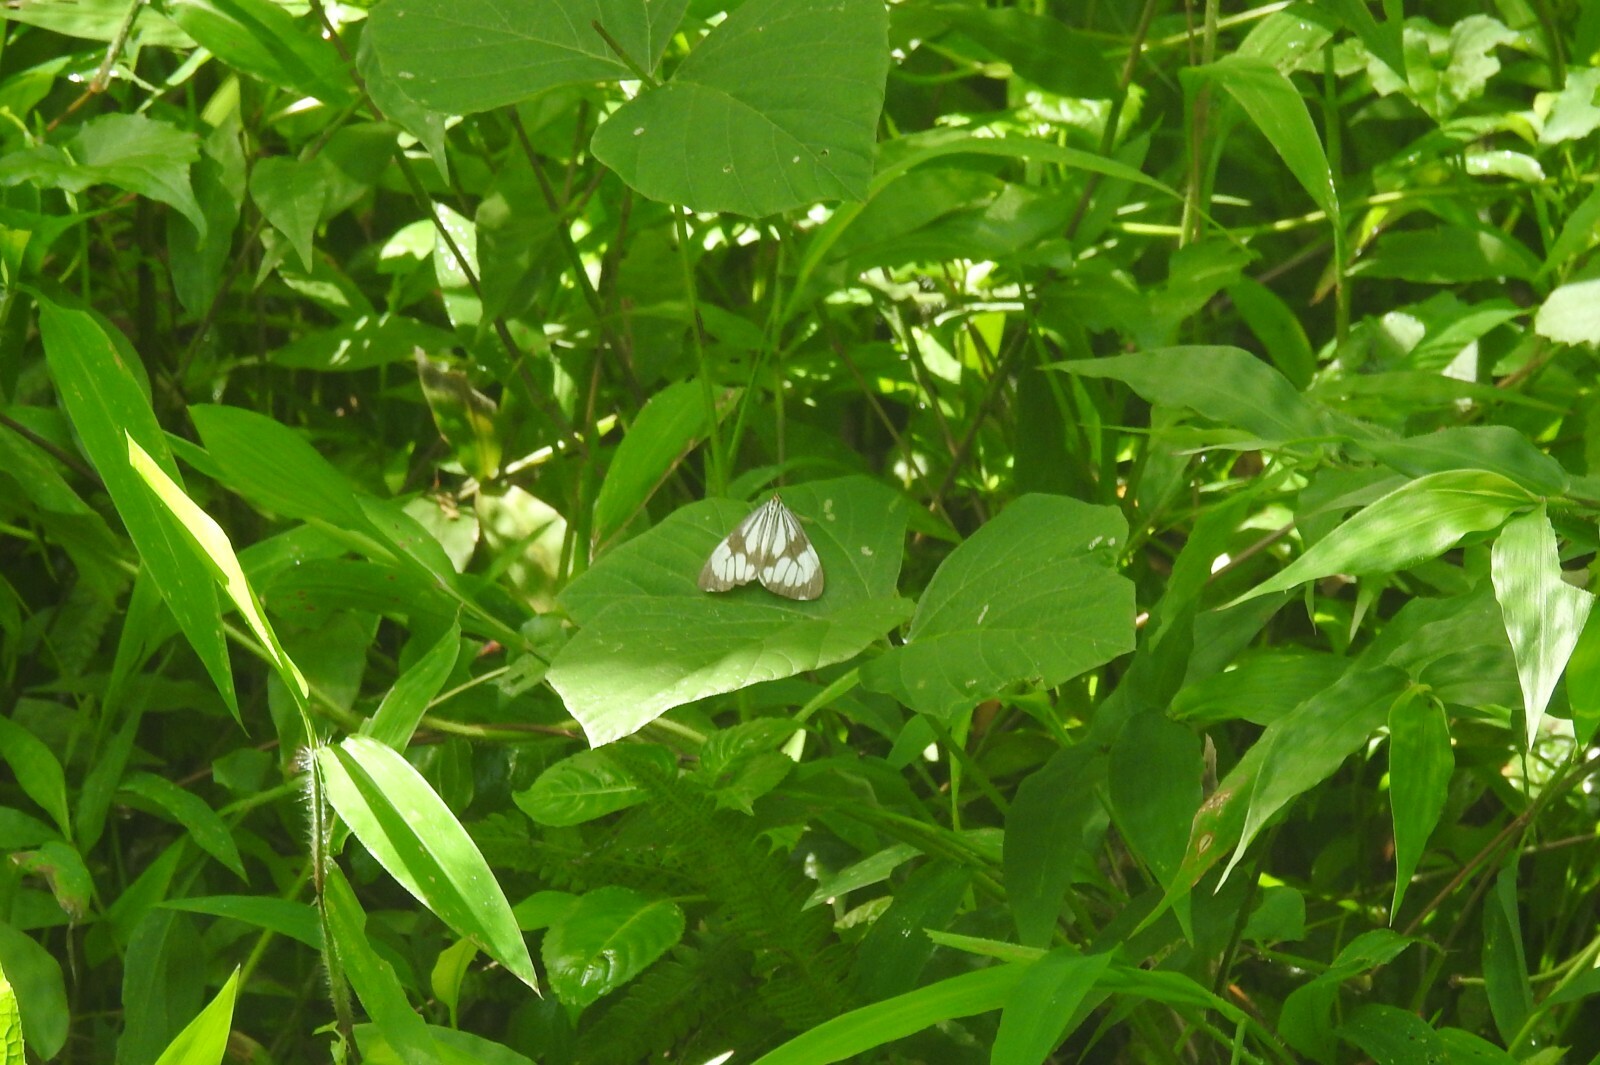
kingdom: Animalia
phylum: Arthropoda
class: Insecta
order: Lepidoptera
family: Erebidae
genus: Nyctemera
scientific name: Nyctemera adversata
